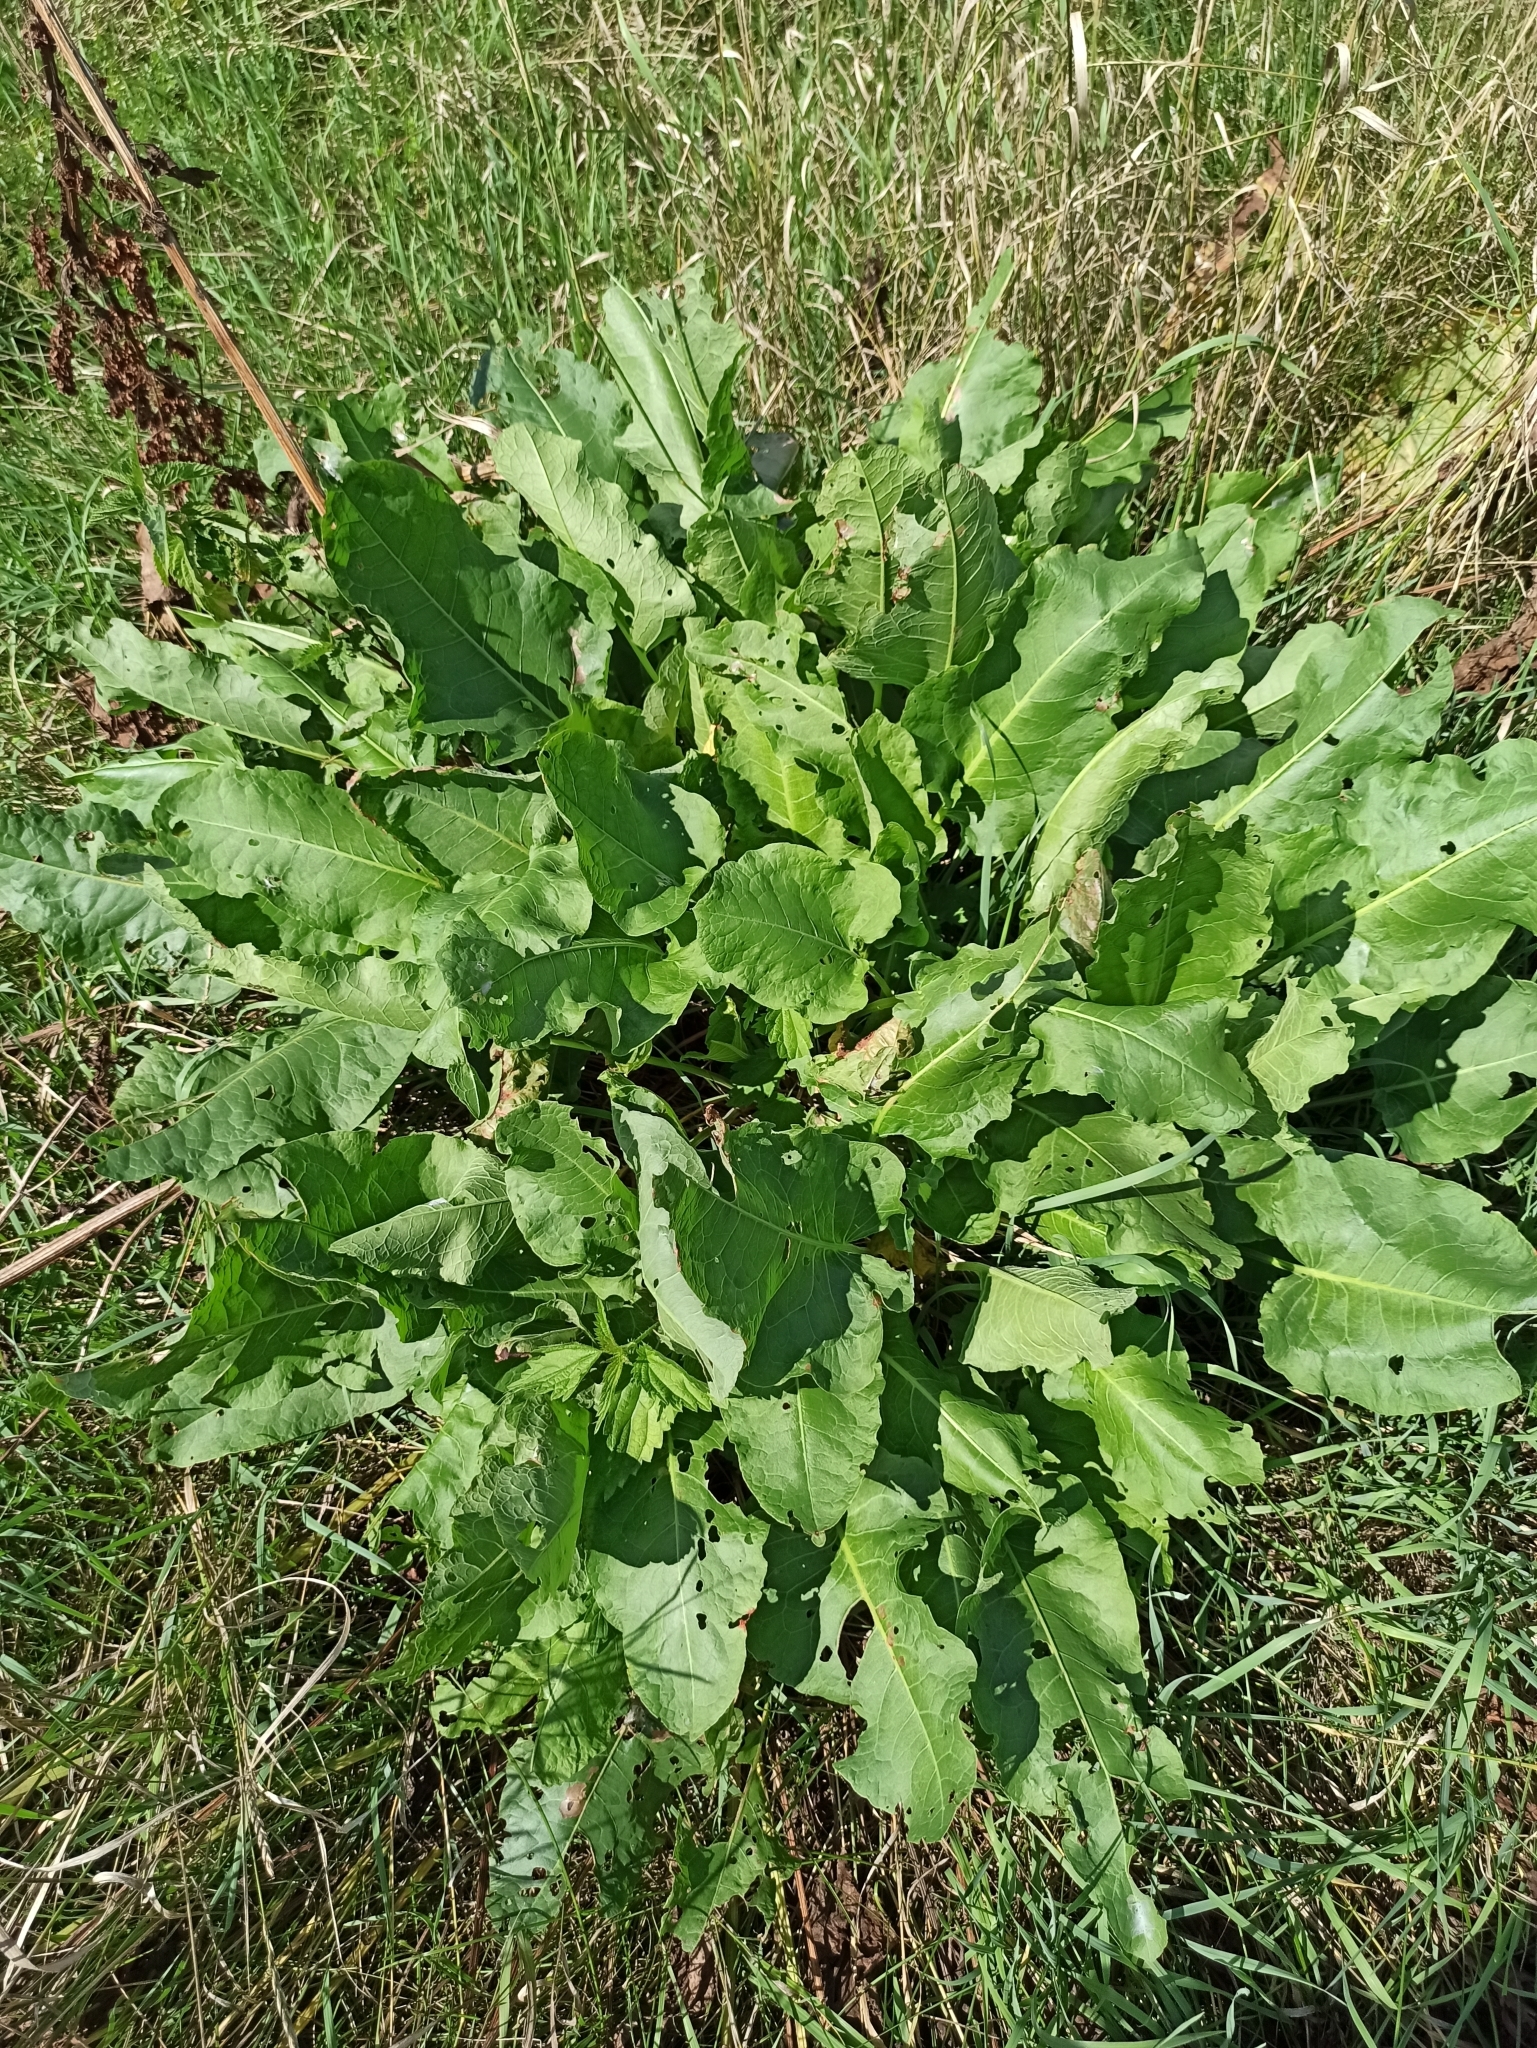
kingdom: Plantae
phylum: Tracheophyta
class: Magnoliopsida
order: Caryophyllales
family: Polygonaceae
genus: Rumex
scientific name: Rumex confertus
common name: Russian dock
